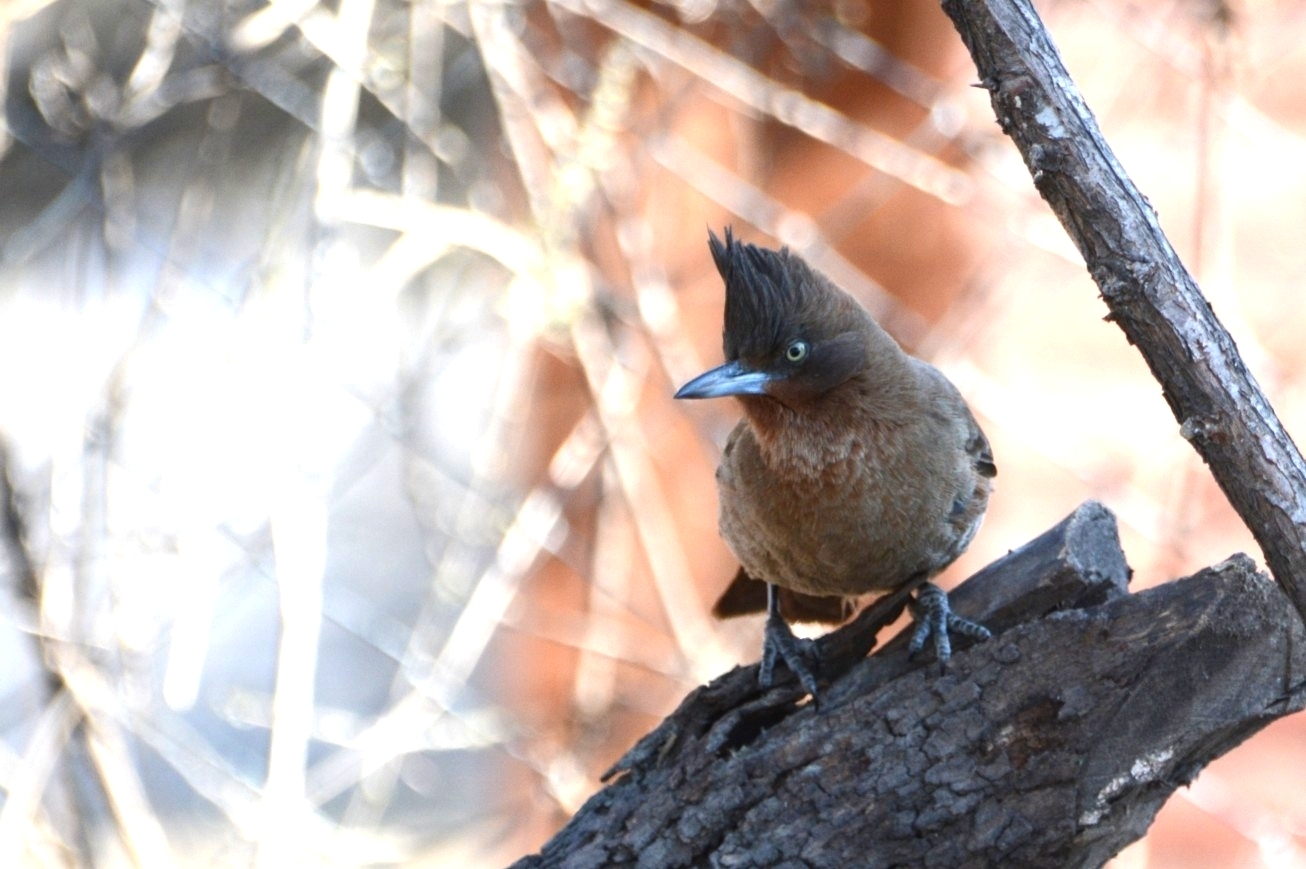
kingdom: Animalia
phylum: Chordata
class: Aves
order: Passeriformes
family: Furnariidae
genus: Pseudoseisura
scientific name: Pseudoseisura lophotes
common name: Brown cacholote
